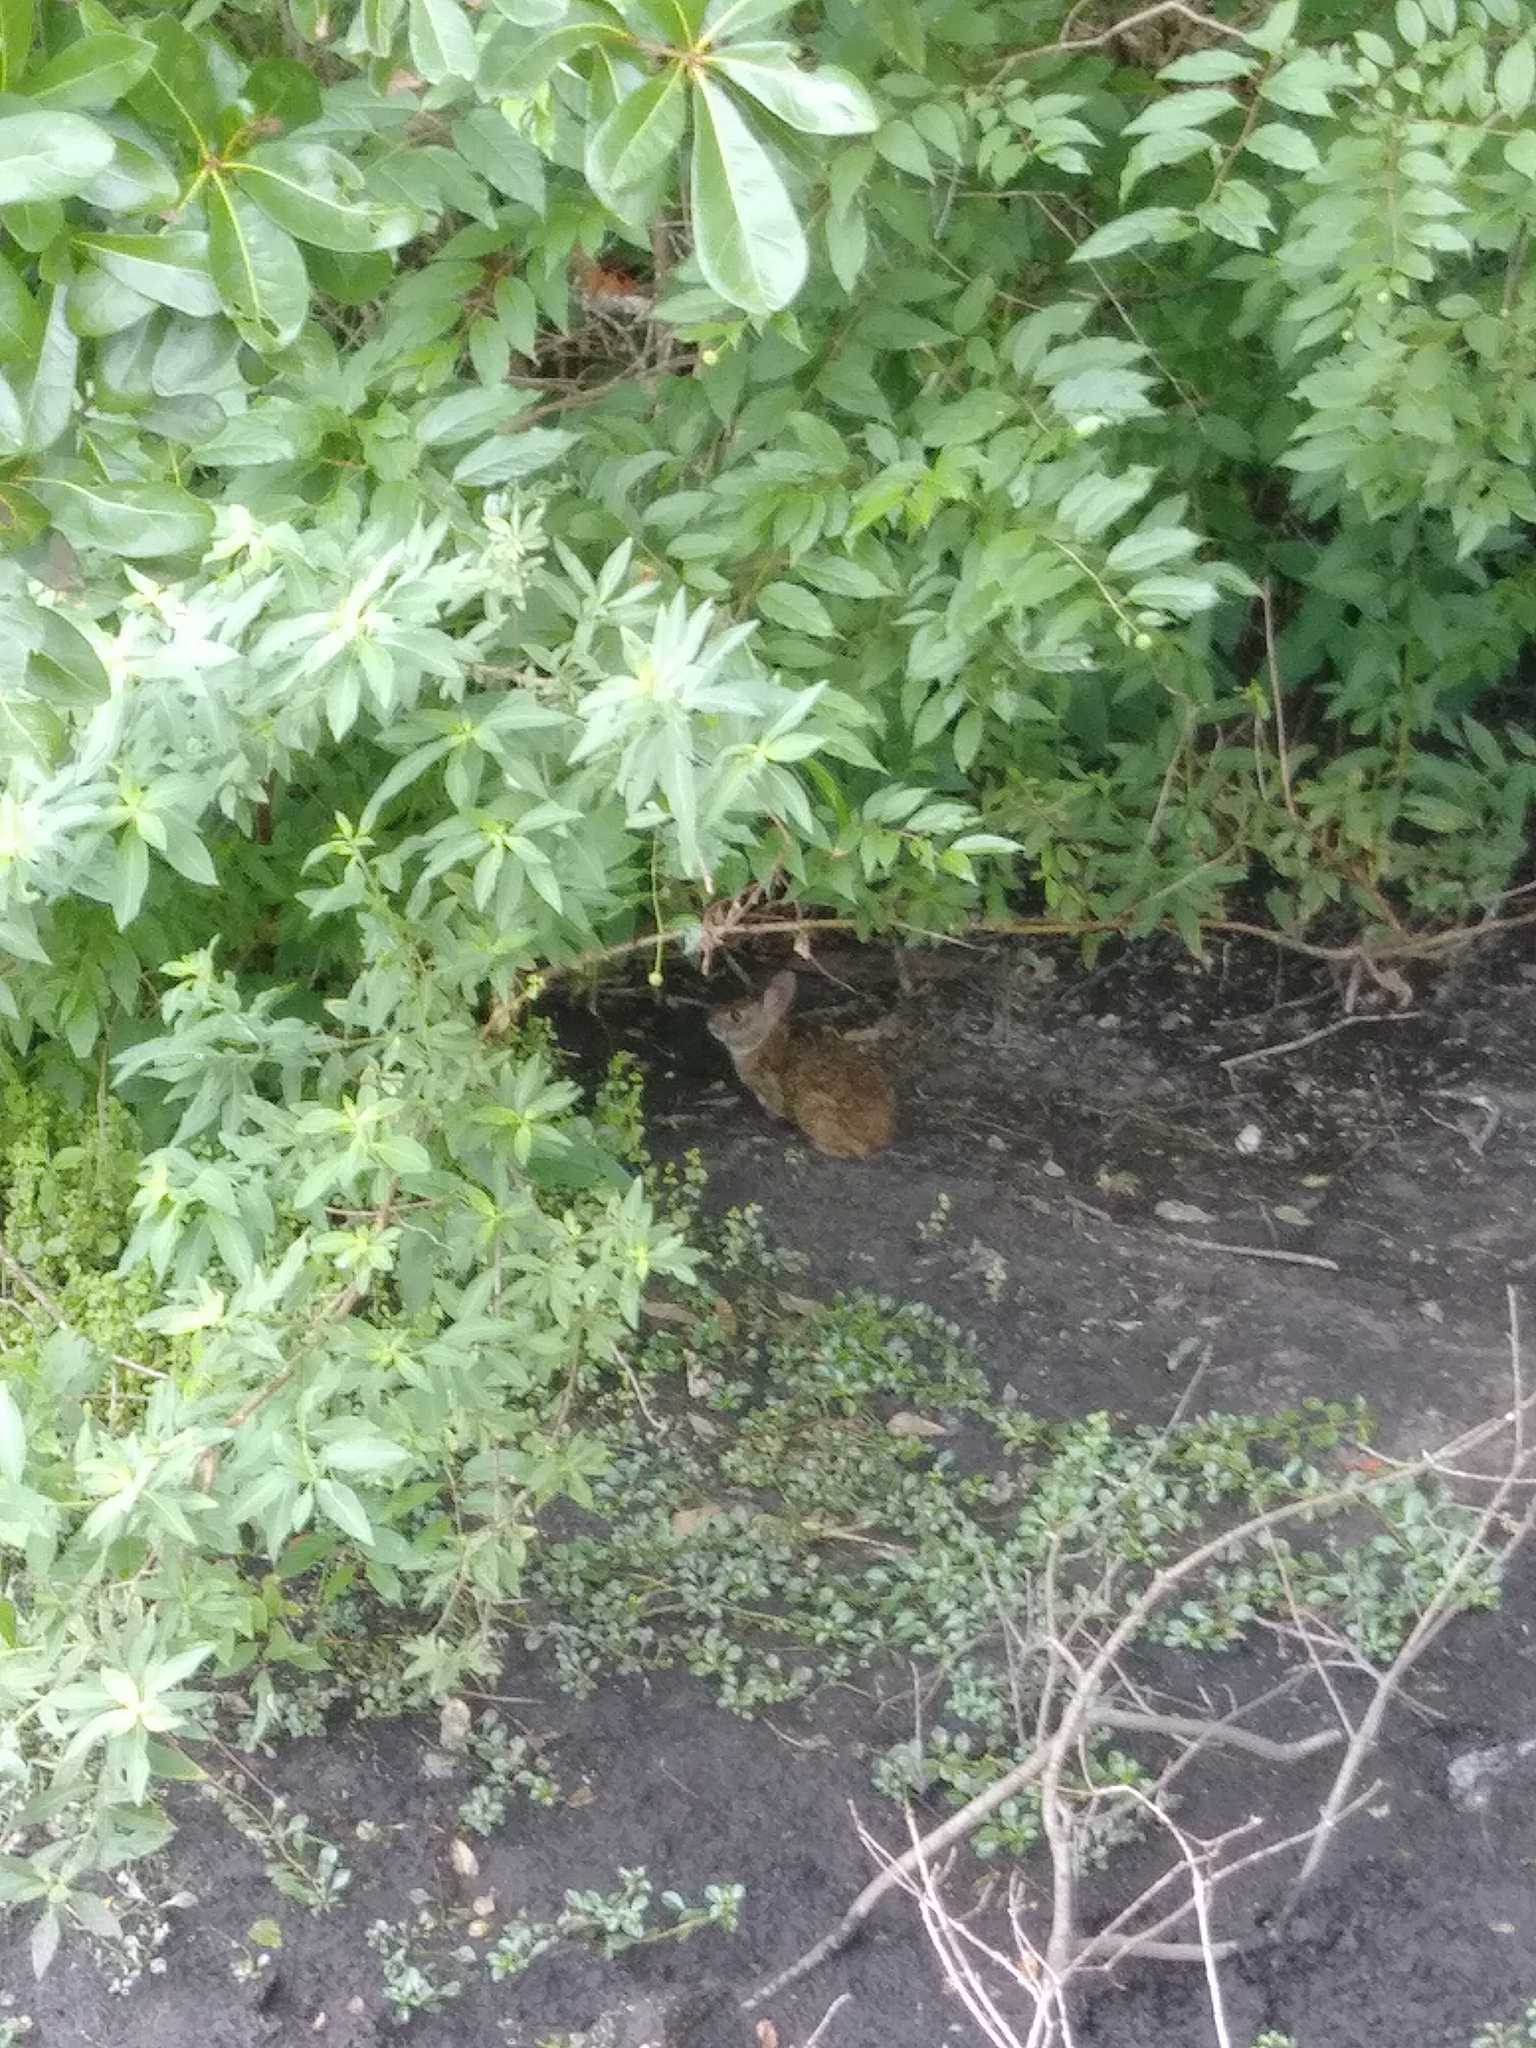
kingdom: Animalia
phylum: Chordata
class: Mammalia
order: Lagomorpha
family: Leporidae
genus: Sylvilagus
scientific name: Sylvilagus palustris
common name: Marsh rabbit
